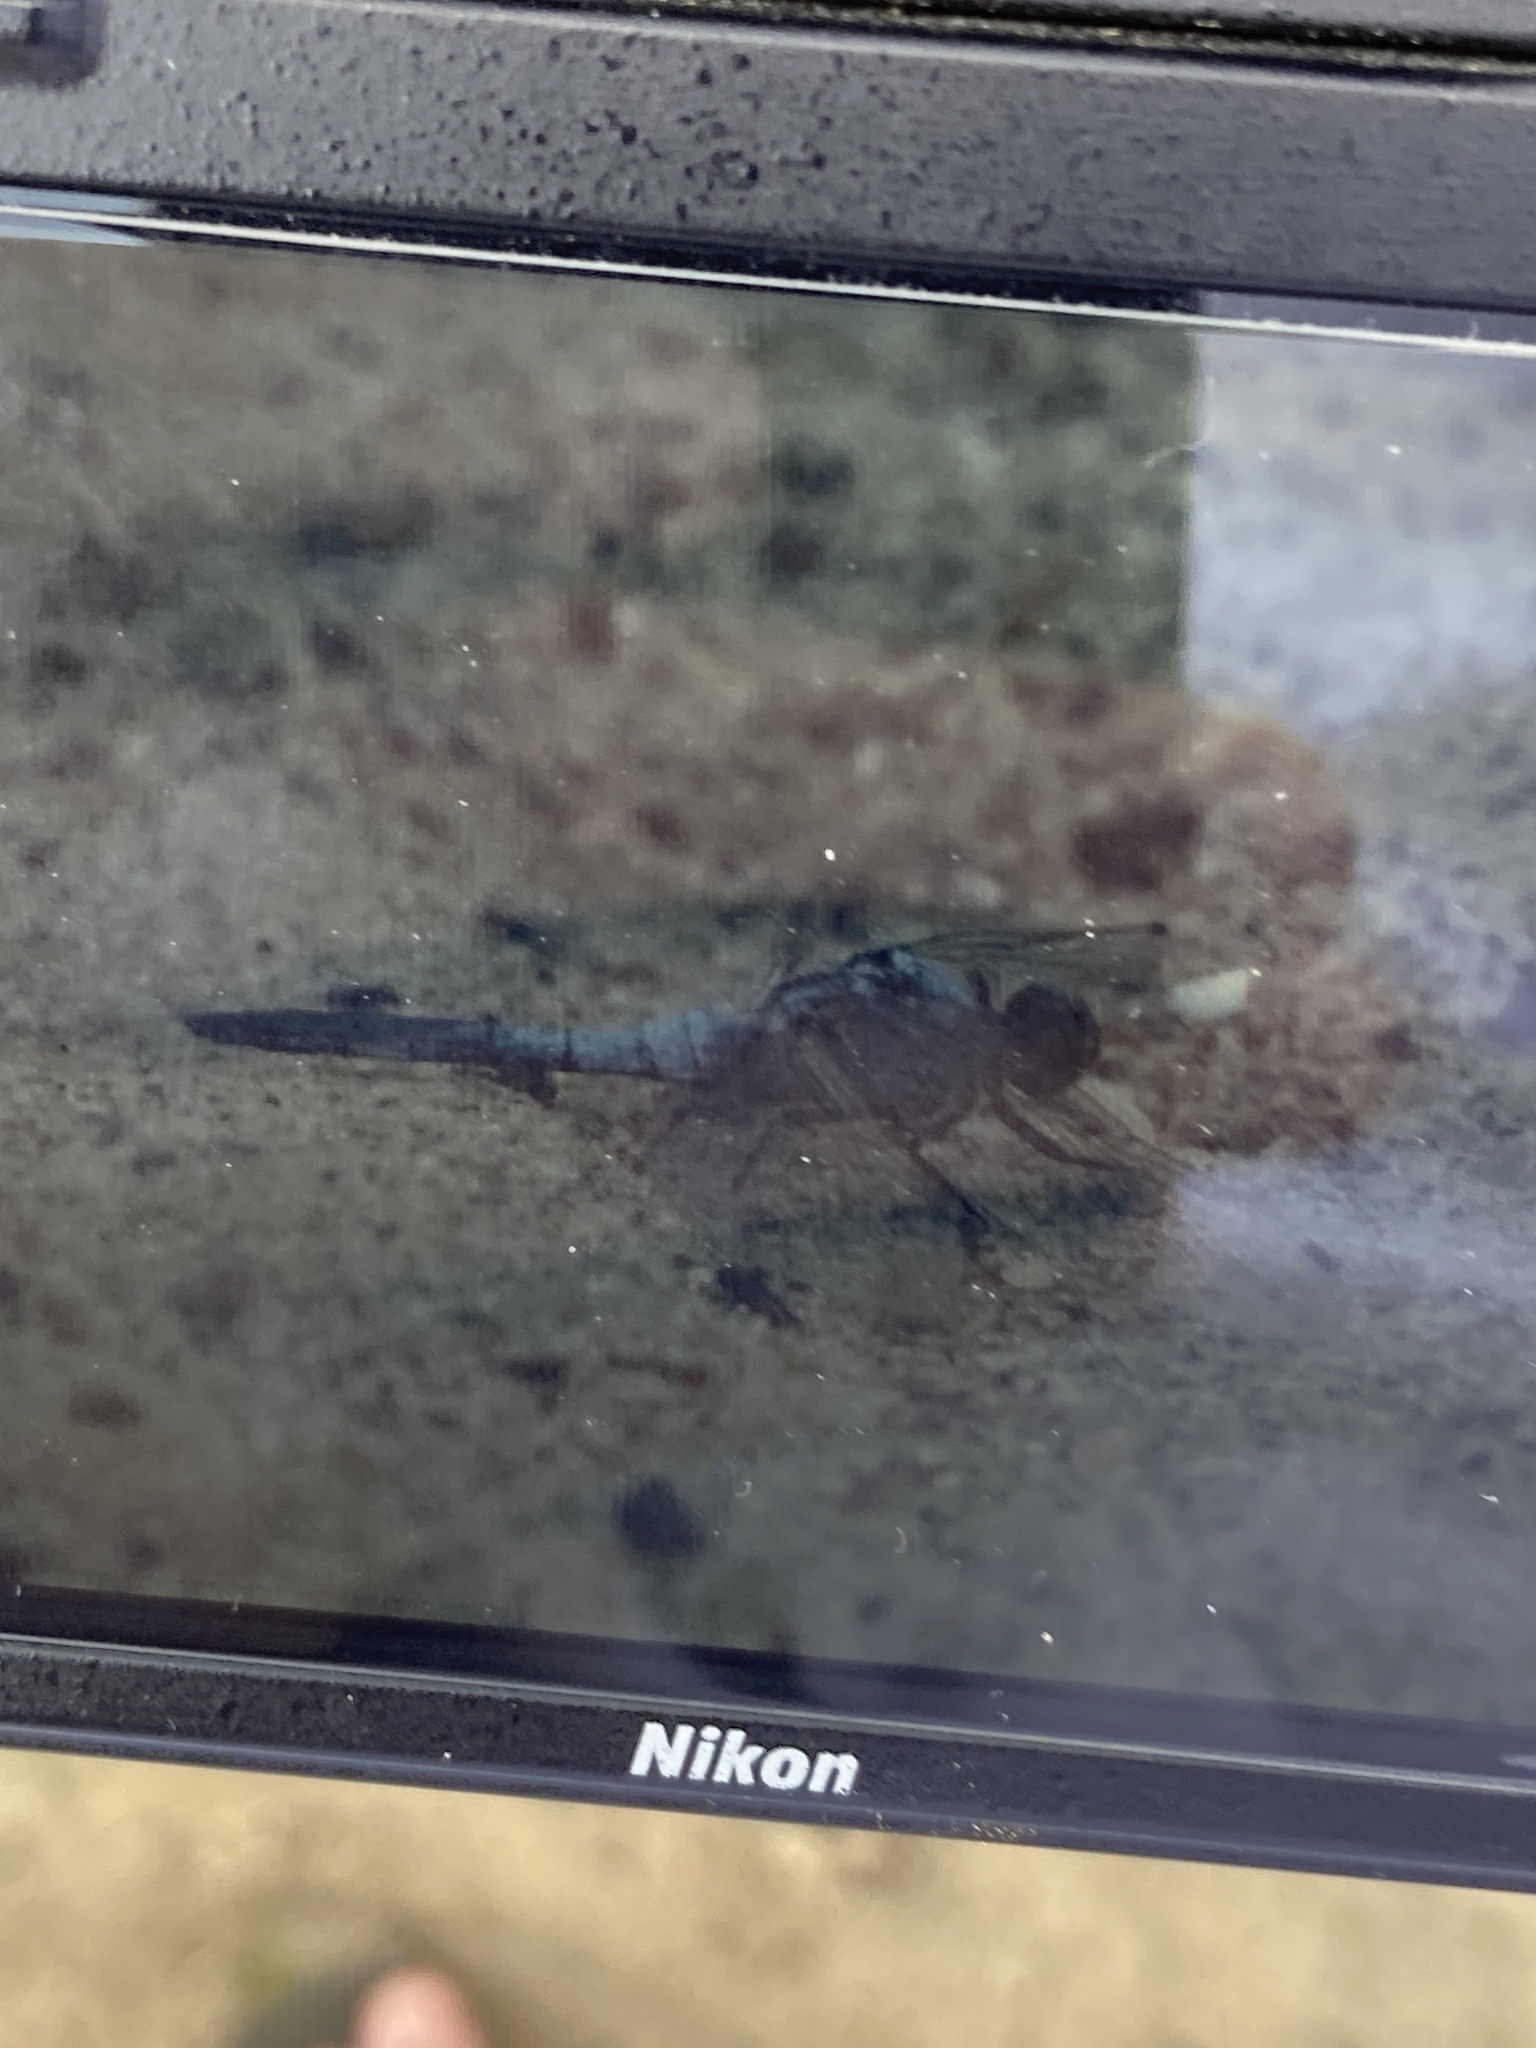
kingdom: Animalia
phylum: Arthropoda
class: Insecta
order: Odonata
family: Libellulidae
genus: Orthetrum
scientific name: Orthetrum cancellatum
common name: Black-tailed skimmer
